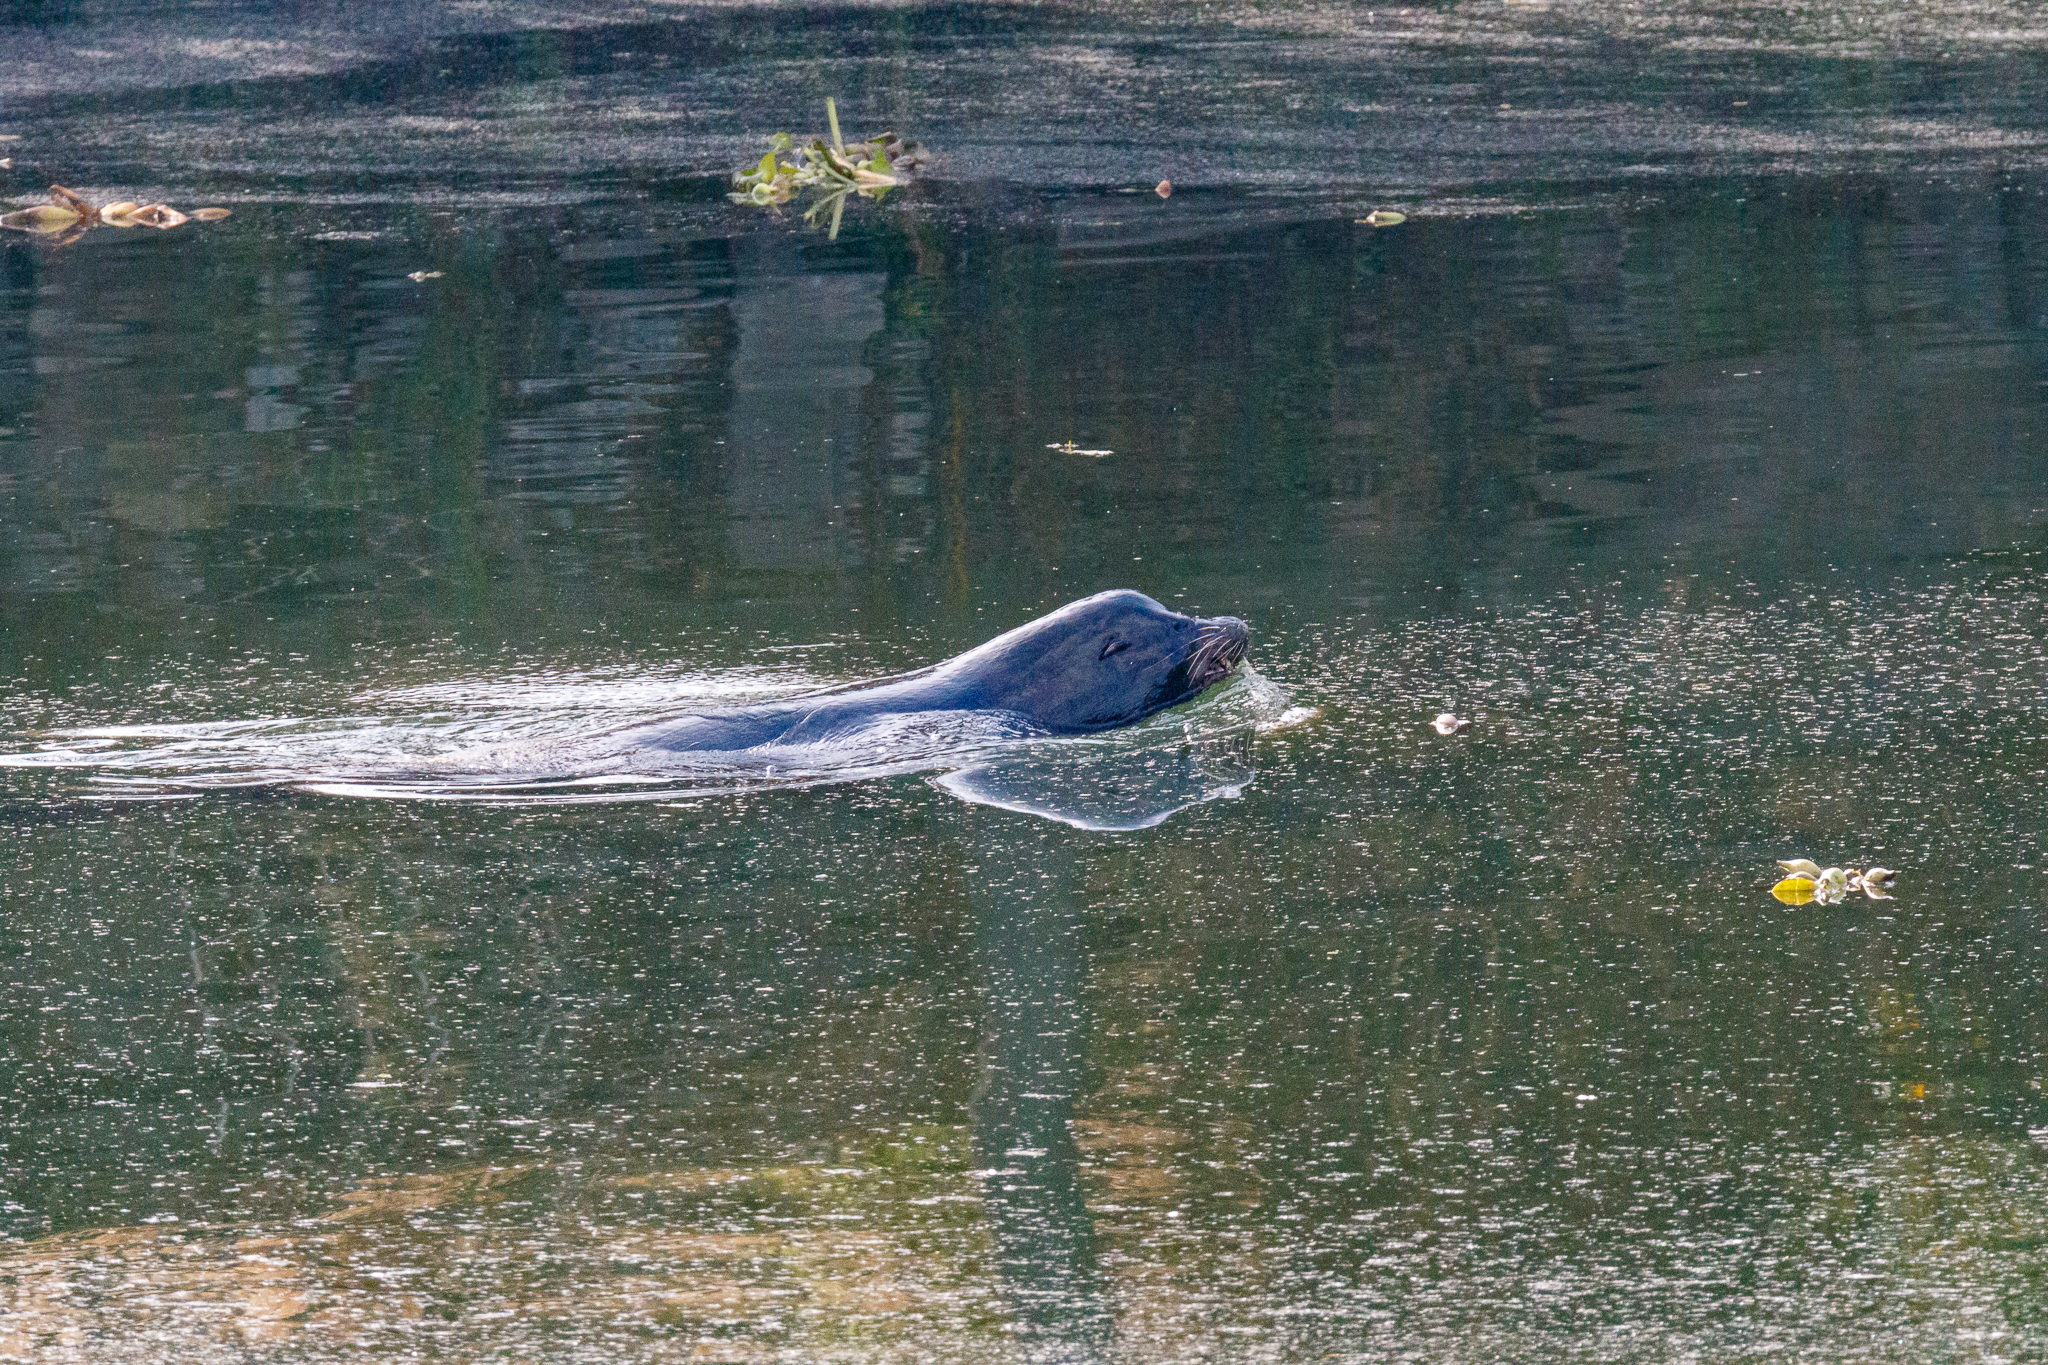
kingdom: Animalia
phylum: Chordata
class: Mammalia
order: Carnivora
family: Otariidae
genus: Zalophus
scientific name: Zalophus californianus
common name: California sea lion
